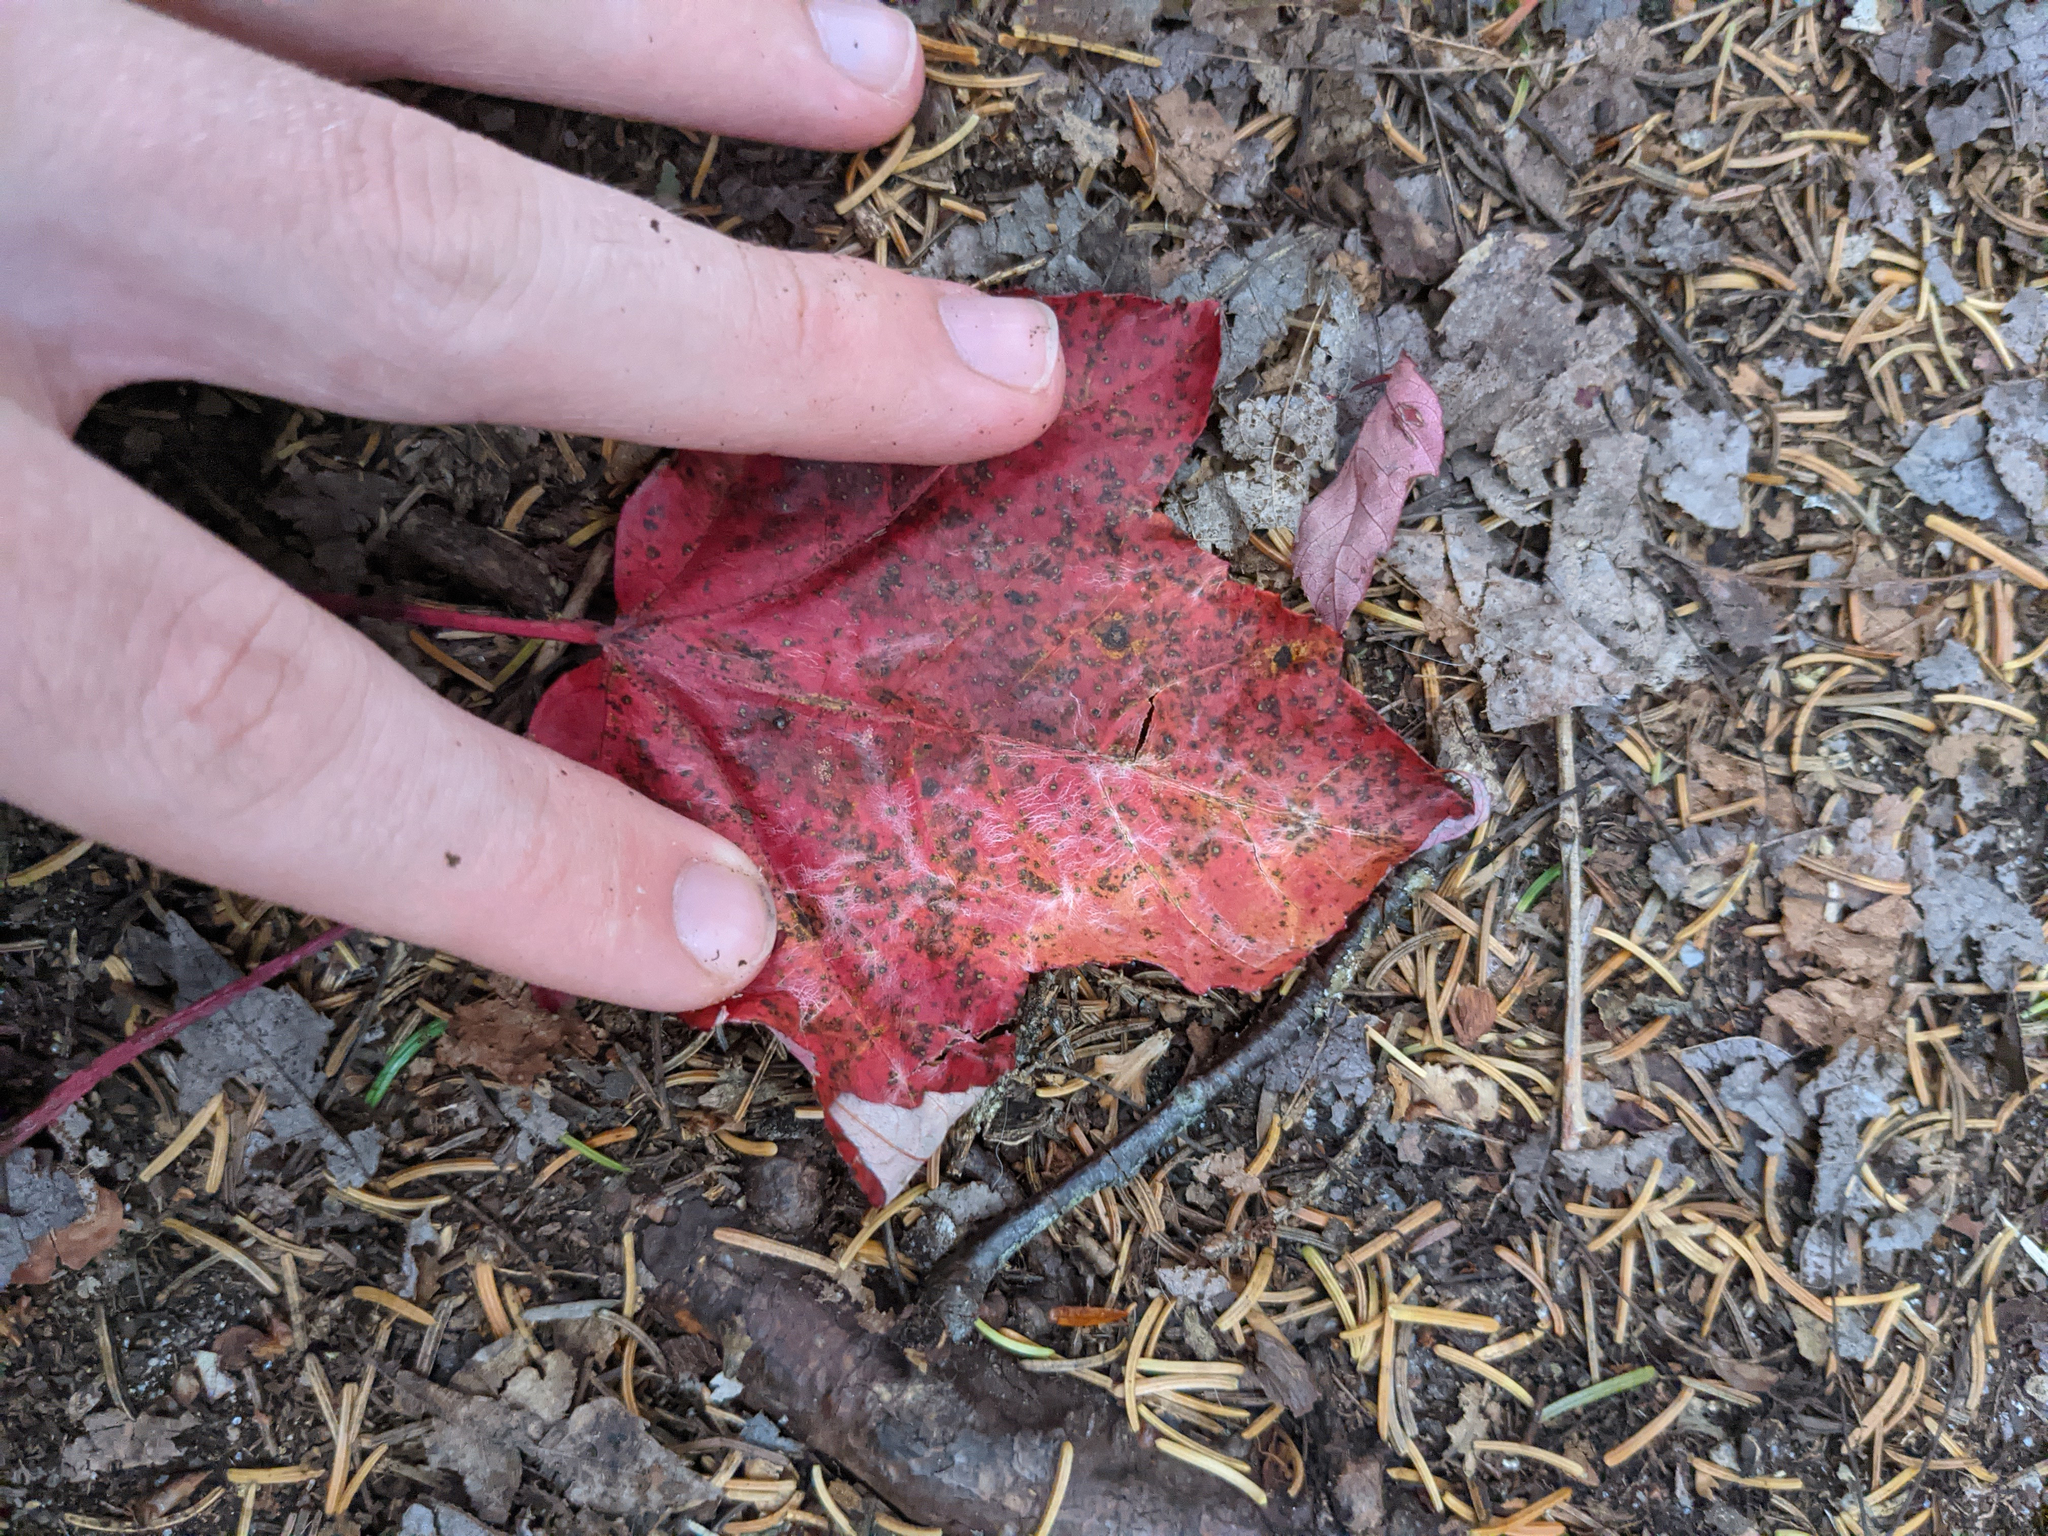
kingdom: Plantae
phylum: Tracheophyta
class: Magnoliopsida
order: Sapindales
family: Sapindaceae
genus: Acer
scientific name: Acer rubrum
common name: Red maple
